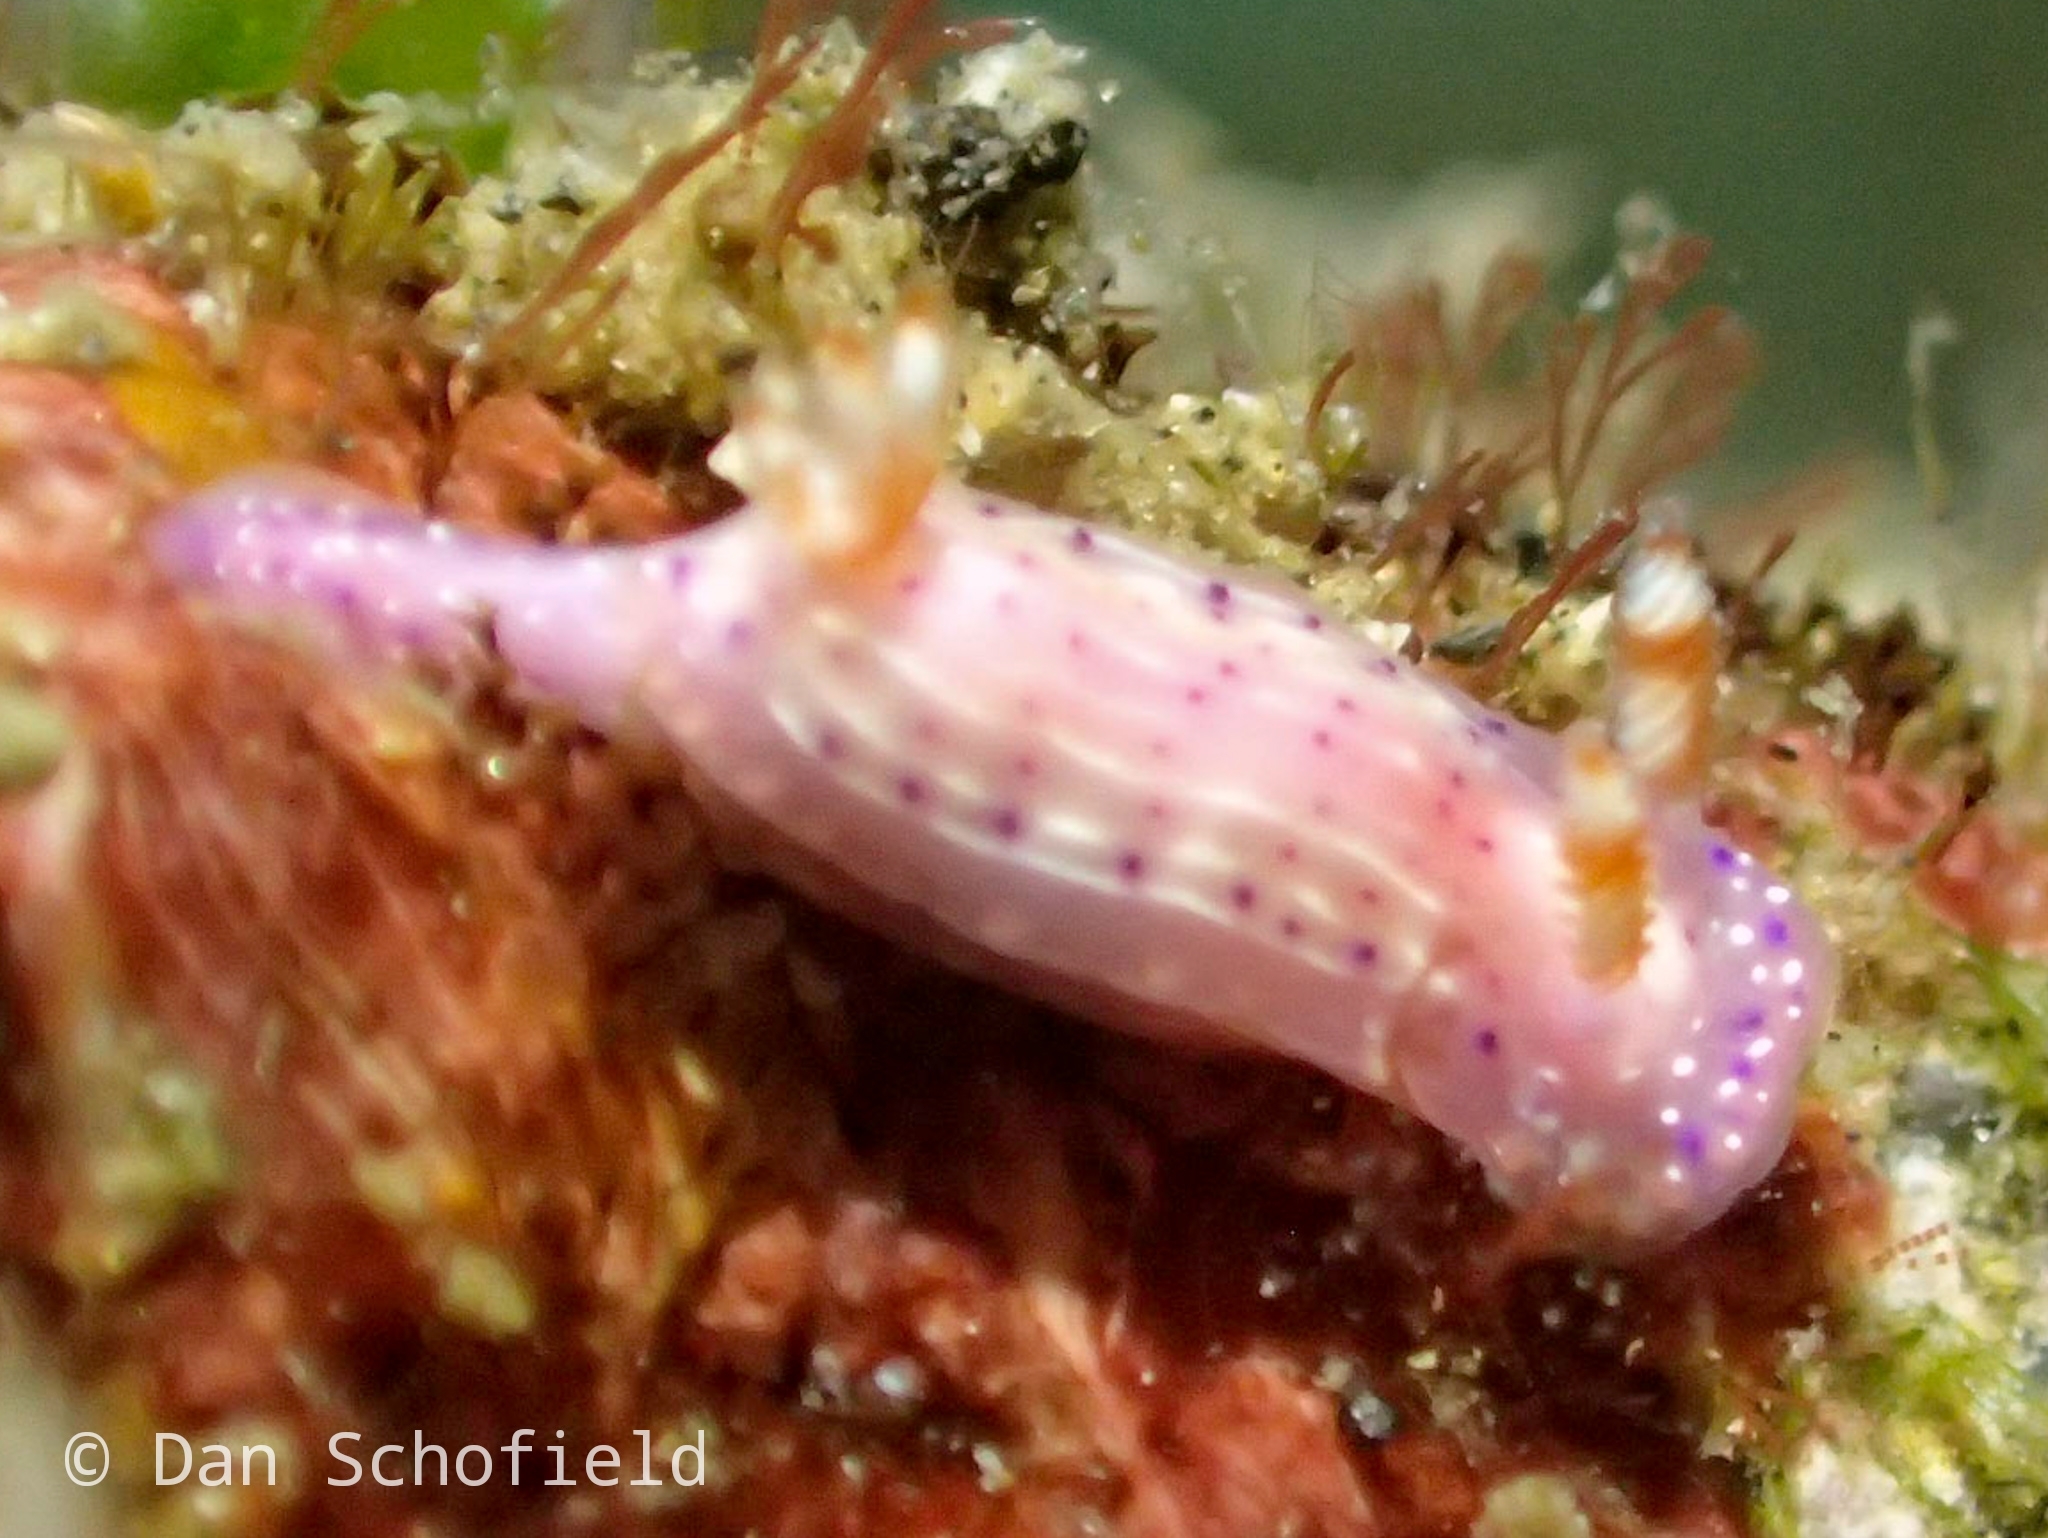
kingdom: Animalia
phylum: Mollusca
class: Gastropoda
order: Nudibranchia
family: Chromodorididae
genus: Hypselodoris
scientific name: Hypselodoris paradisa
